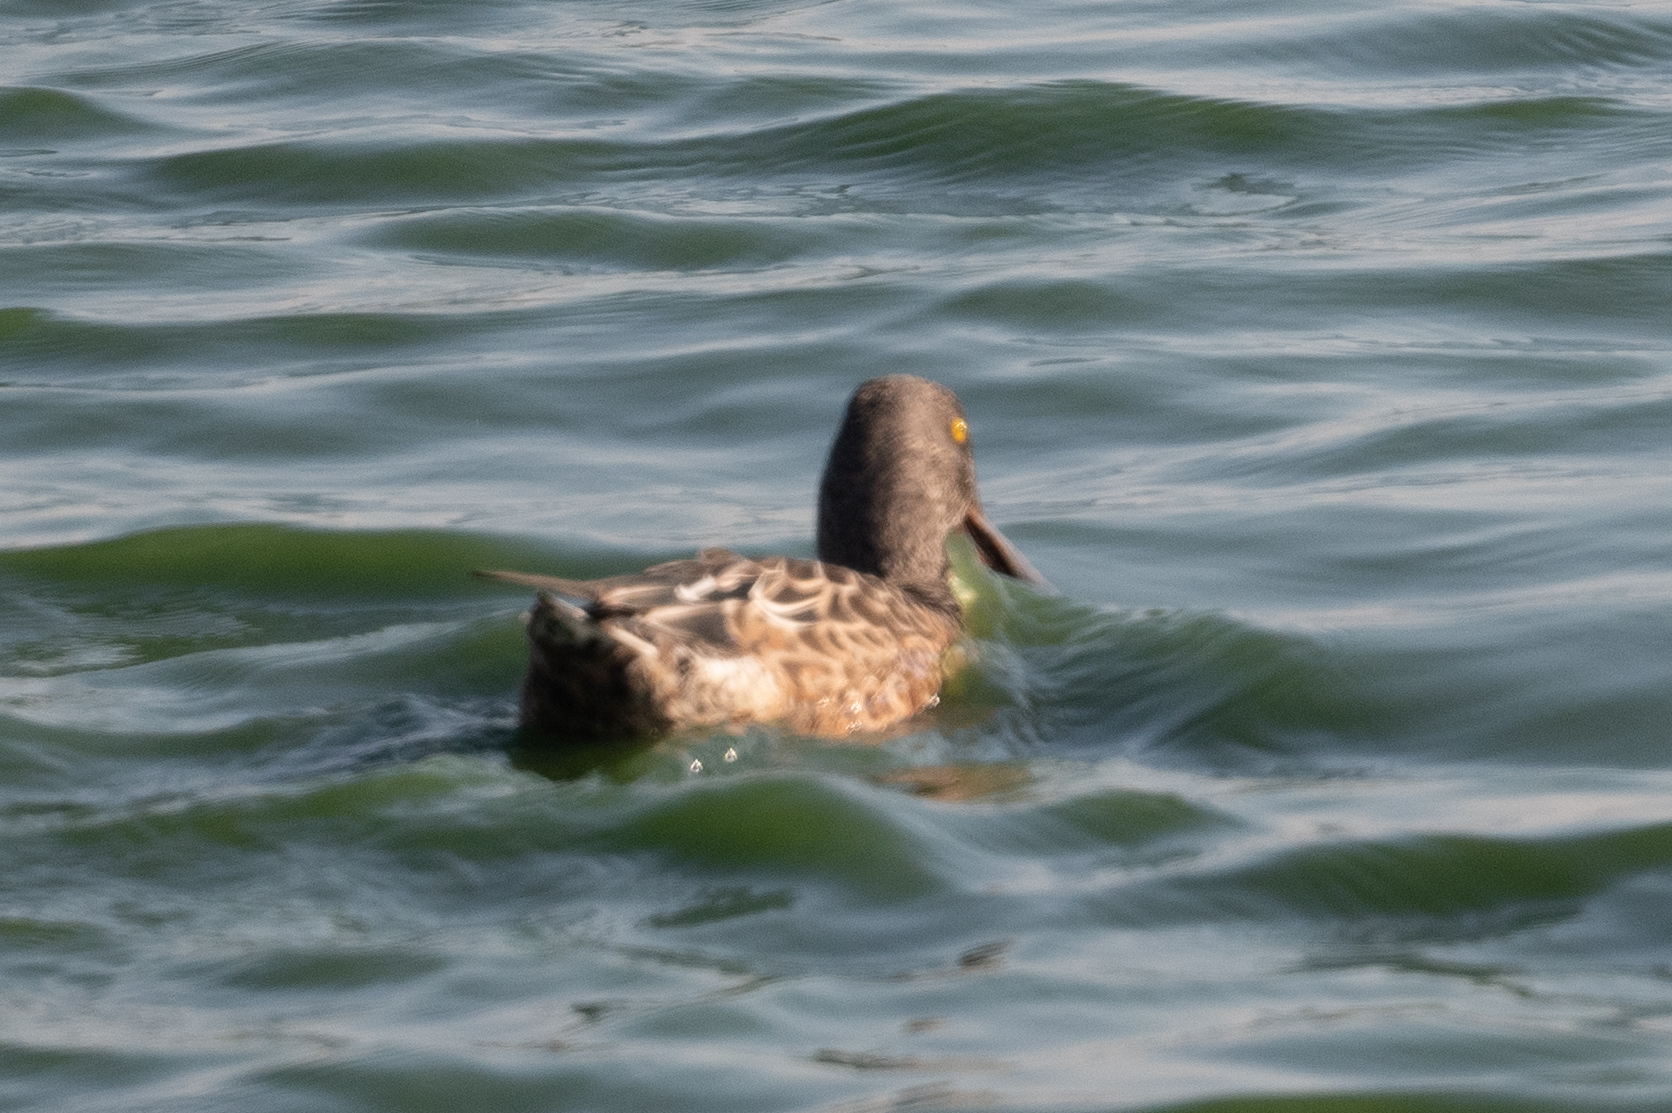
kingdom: Animalia
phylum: Chordata
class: Aves
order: Anseriformes
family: Anatidae
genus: Spatula
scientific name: Spatula clypeata
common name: Northern shoveler
